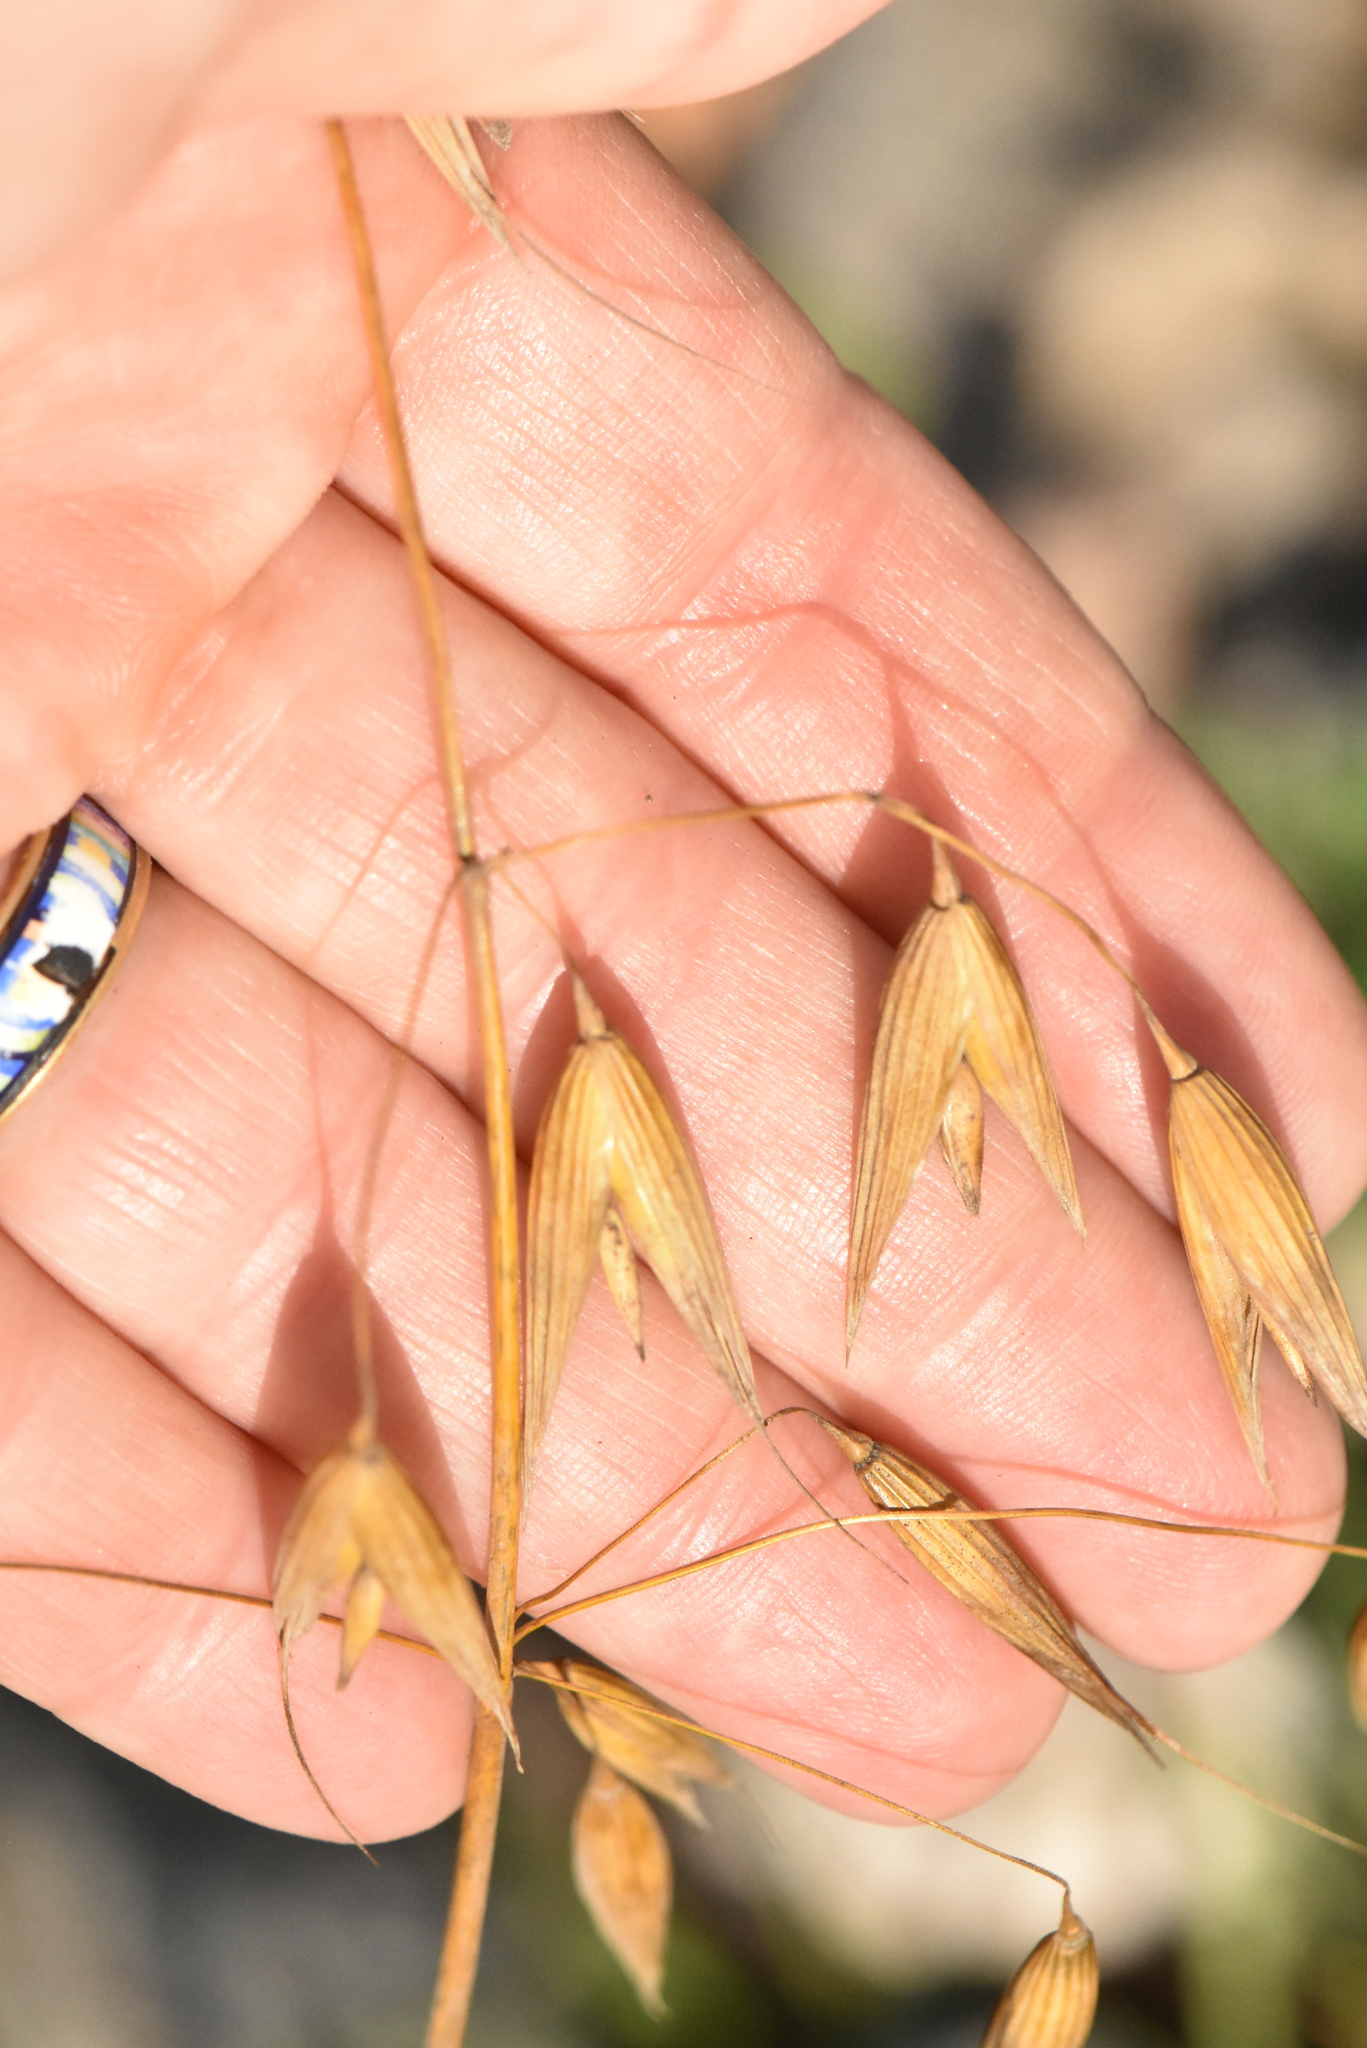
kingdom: Plantae
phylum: Tracheophyta
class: Liliopsida
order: Poales
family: Poaceae
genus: Avena
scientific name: Avena sativa
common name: Oat
